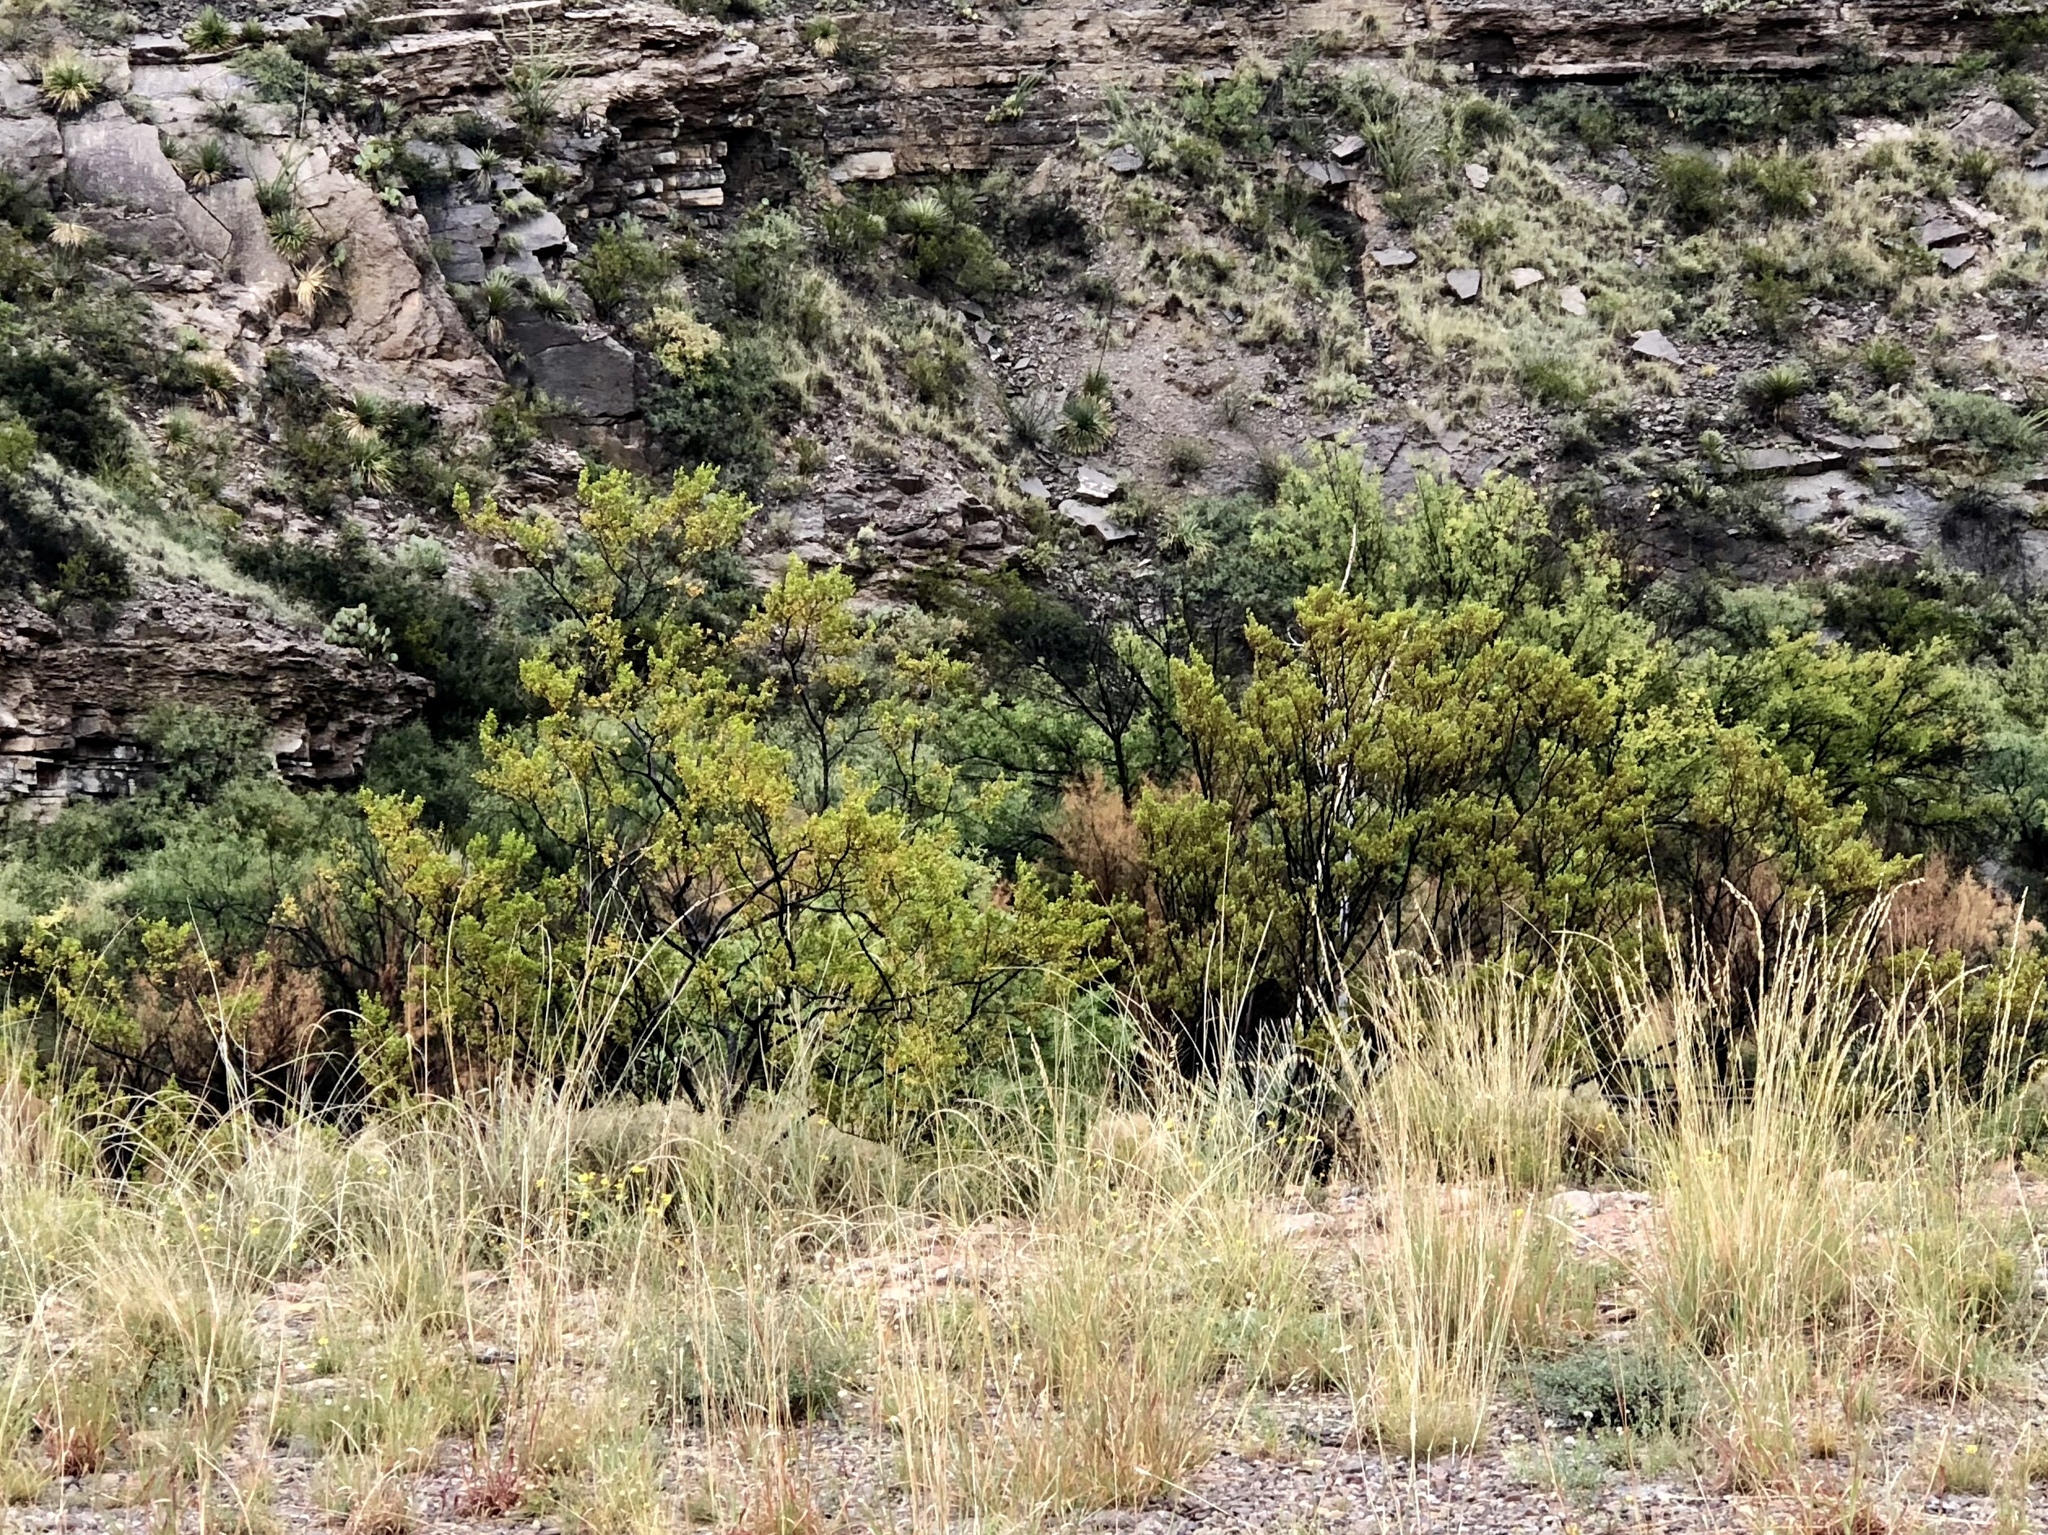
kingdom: Plantae
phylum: Tracheophyta
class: Magnoliopsida
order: Zygophyllales
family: Zygophyllaceae
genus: Larrea
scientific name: Larrea tridentata
